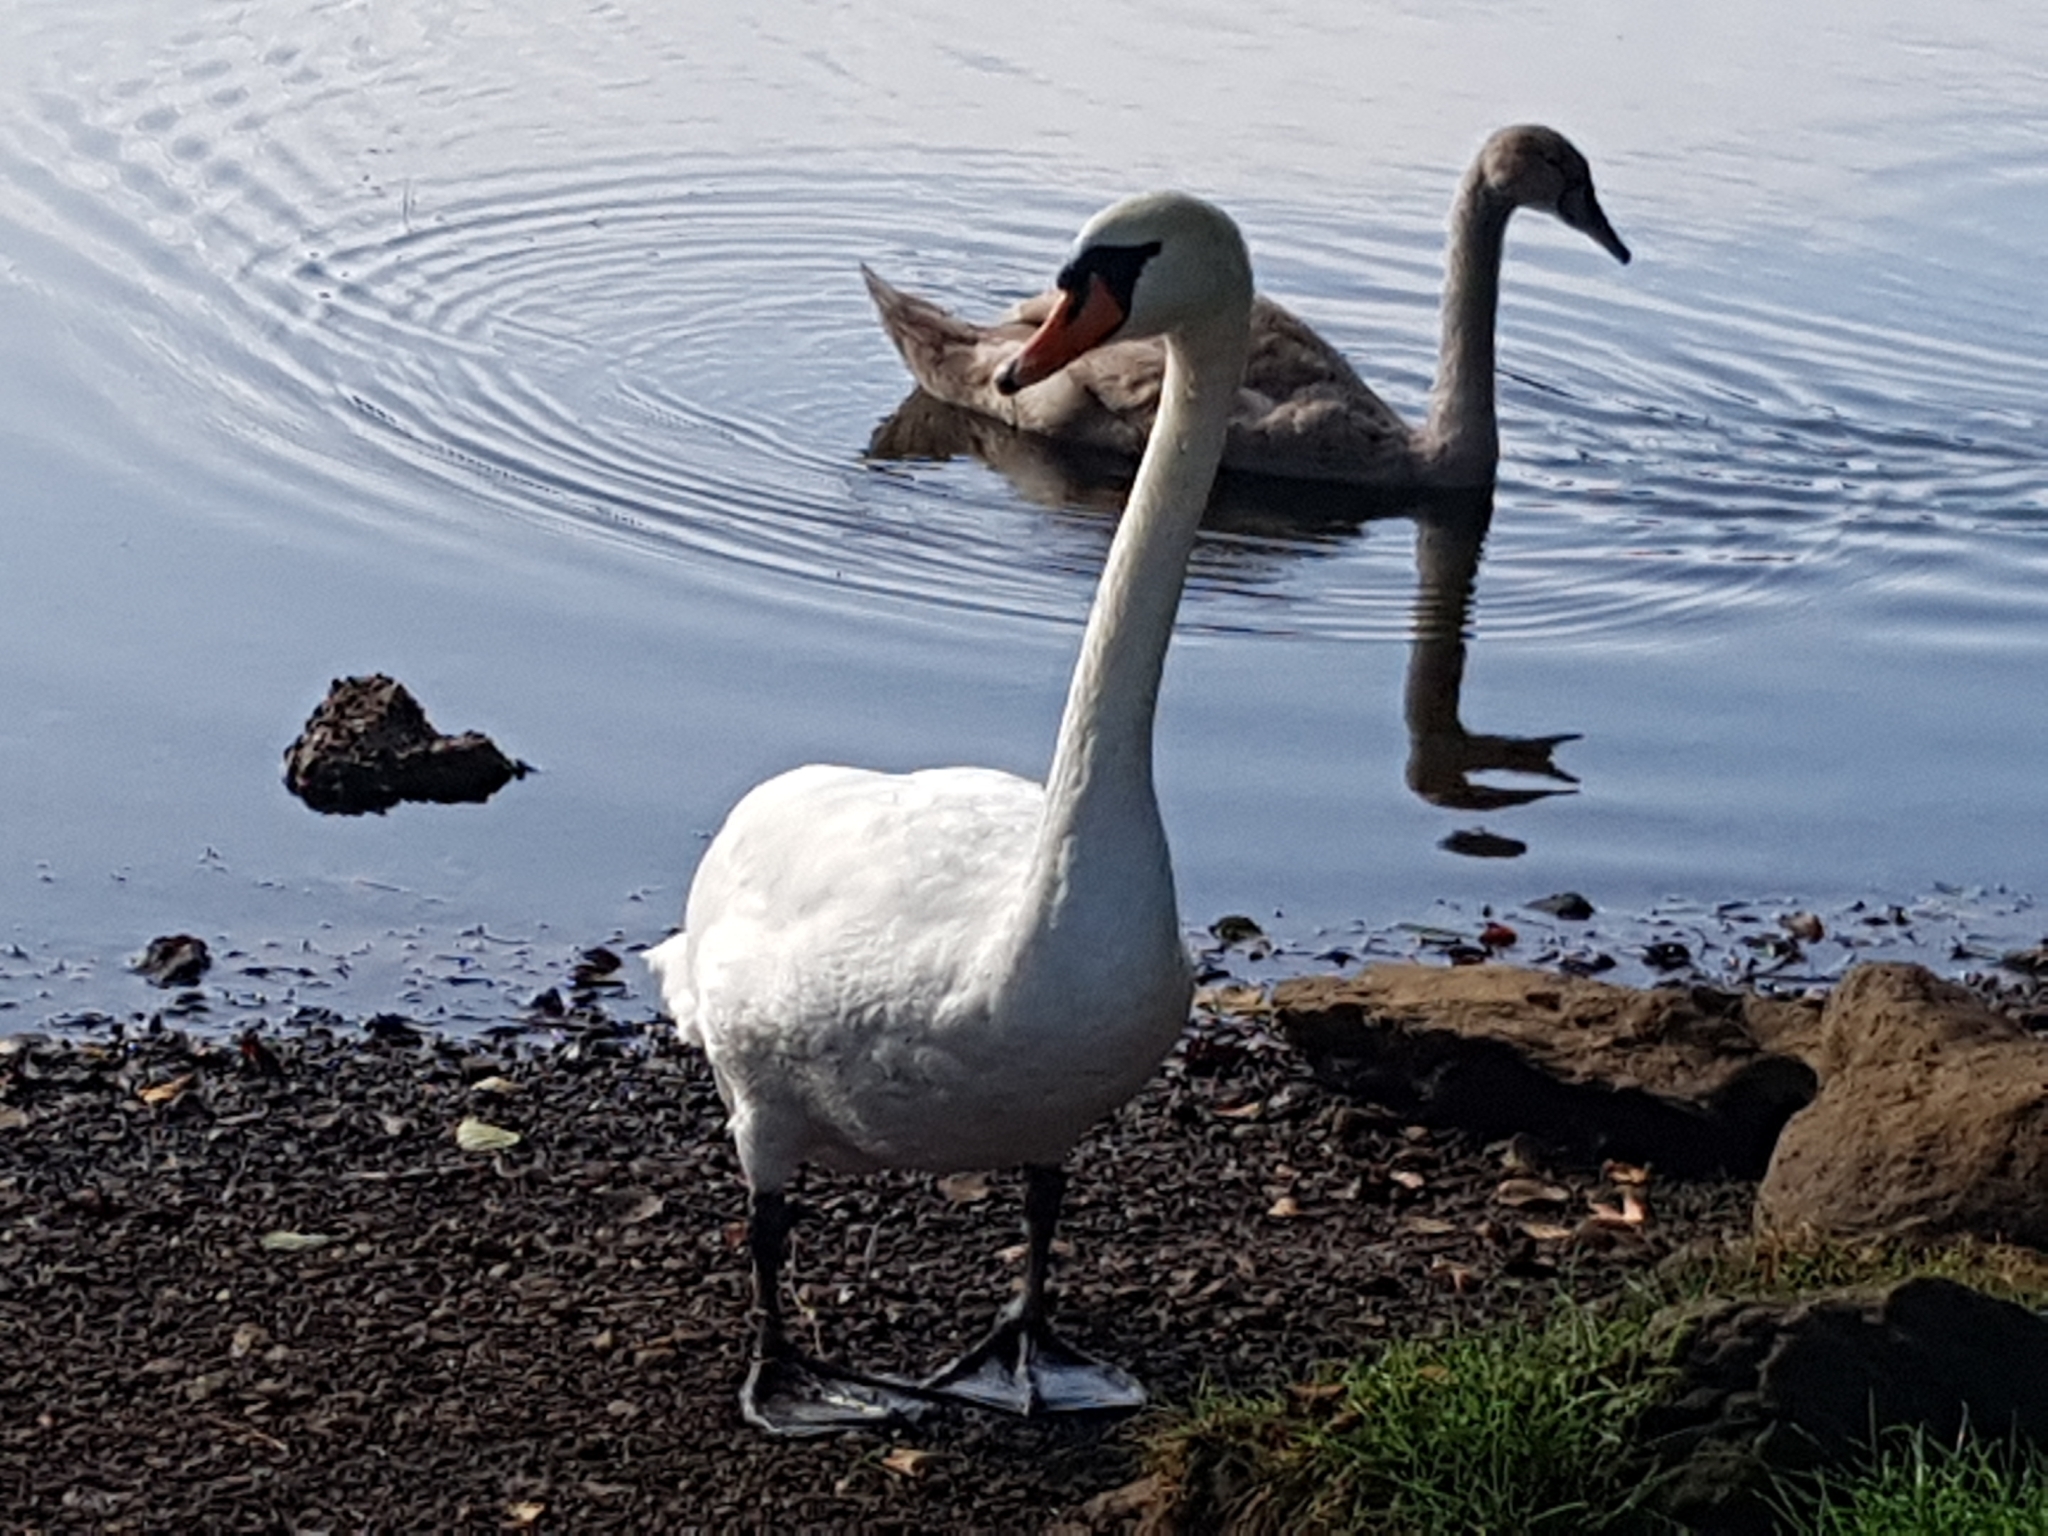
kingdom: Animalia
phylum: Chordata
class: Aves
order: Anseriformes
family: Anatidae
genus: Cygnus
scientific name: Cygnus olor
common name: Mute swan
